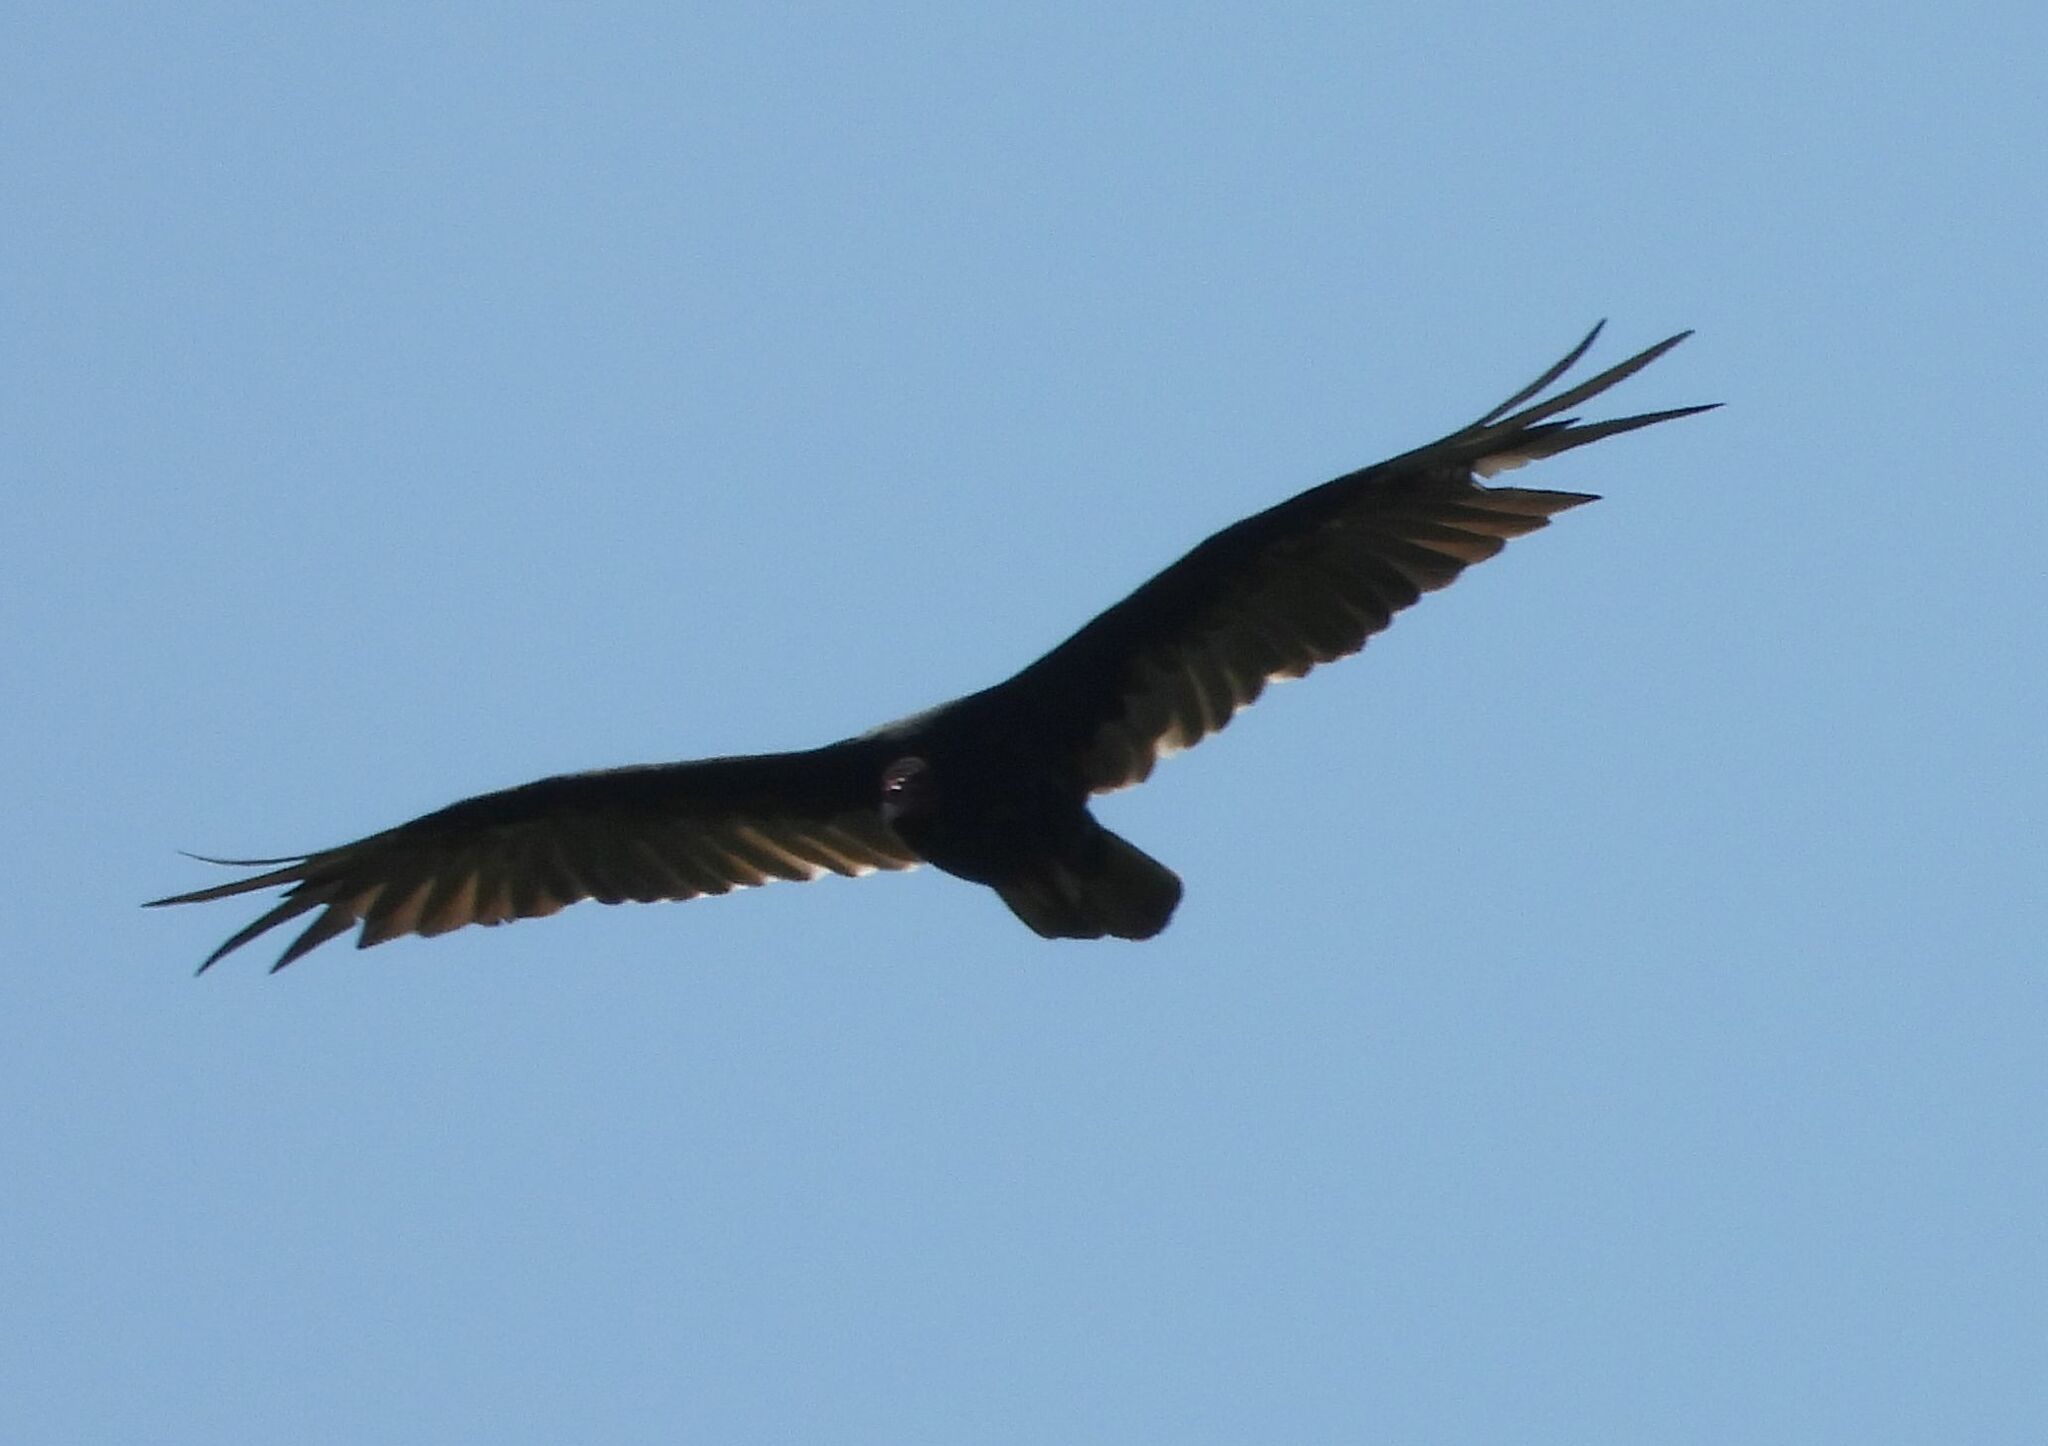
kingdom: Animalia
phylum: Chordata
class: Aves
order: Accipitriformes
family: Cathartidae
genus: Cathartes
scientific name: Cathartes aura
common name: Turkey vulture
